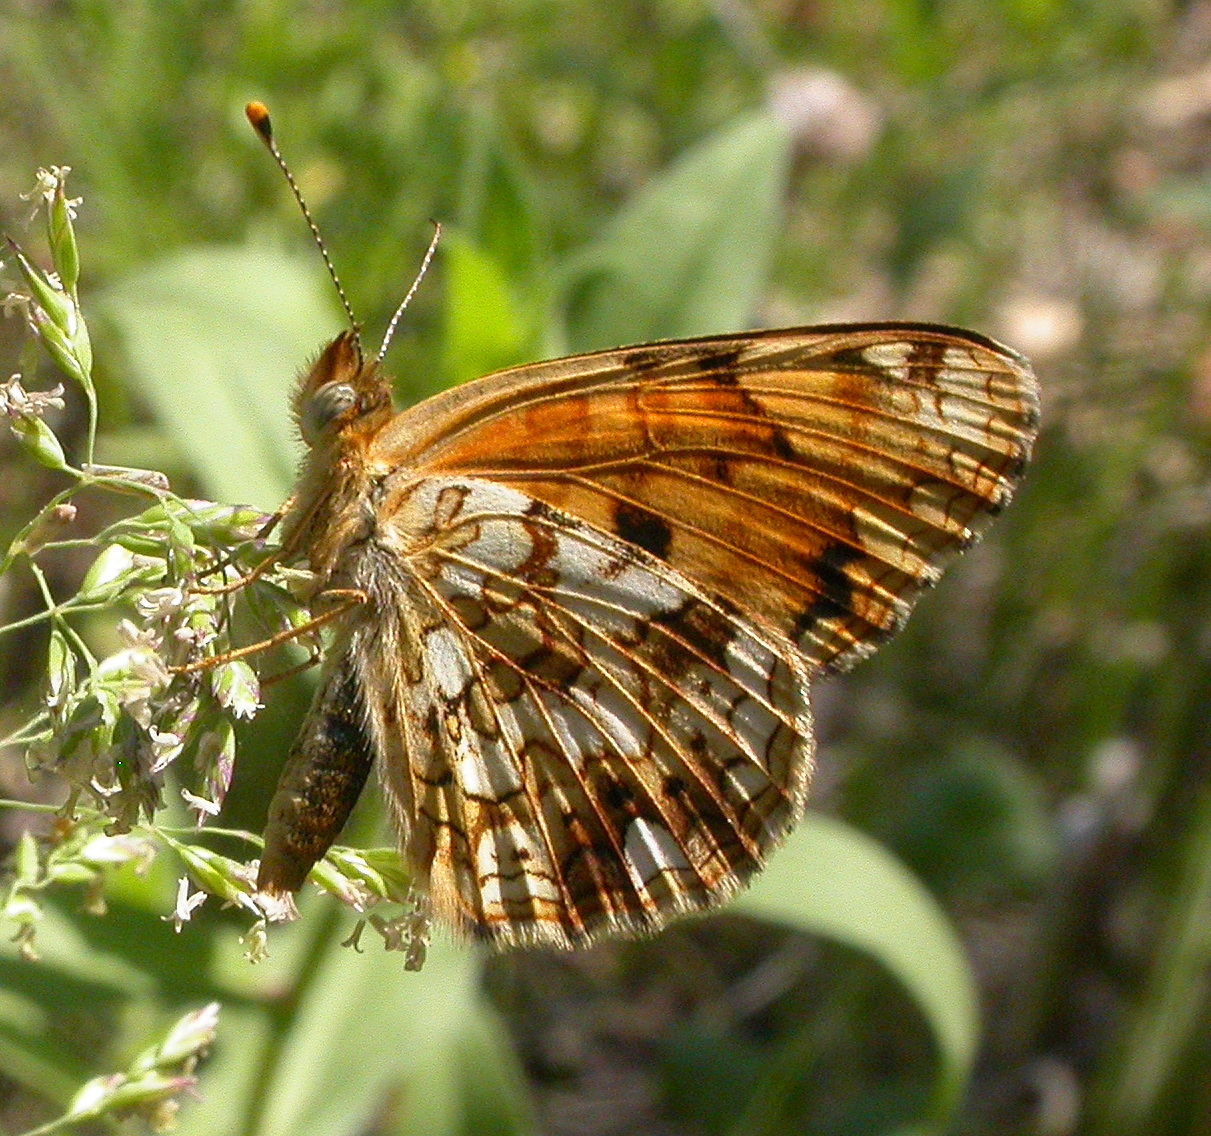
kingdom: Animalia
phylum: Arthropoda
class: Insecta
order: Lepidoptera
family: Nymphalidae
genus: Phyciodes
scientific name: Phyciodes pallida
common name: Pale crescent
